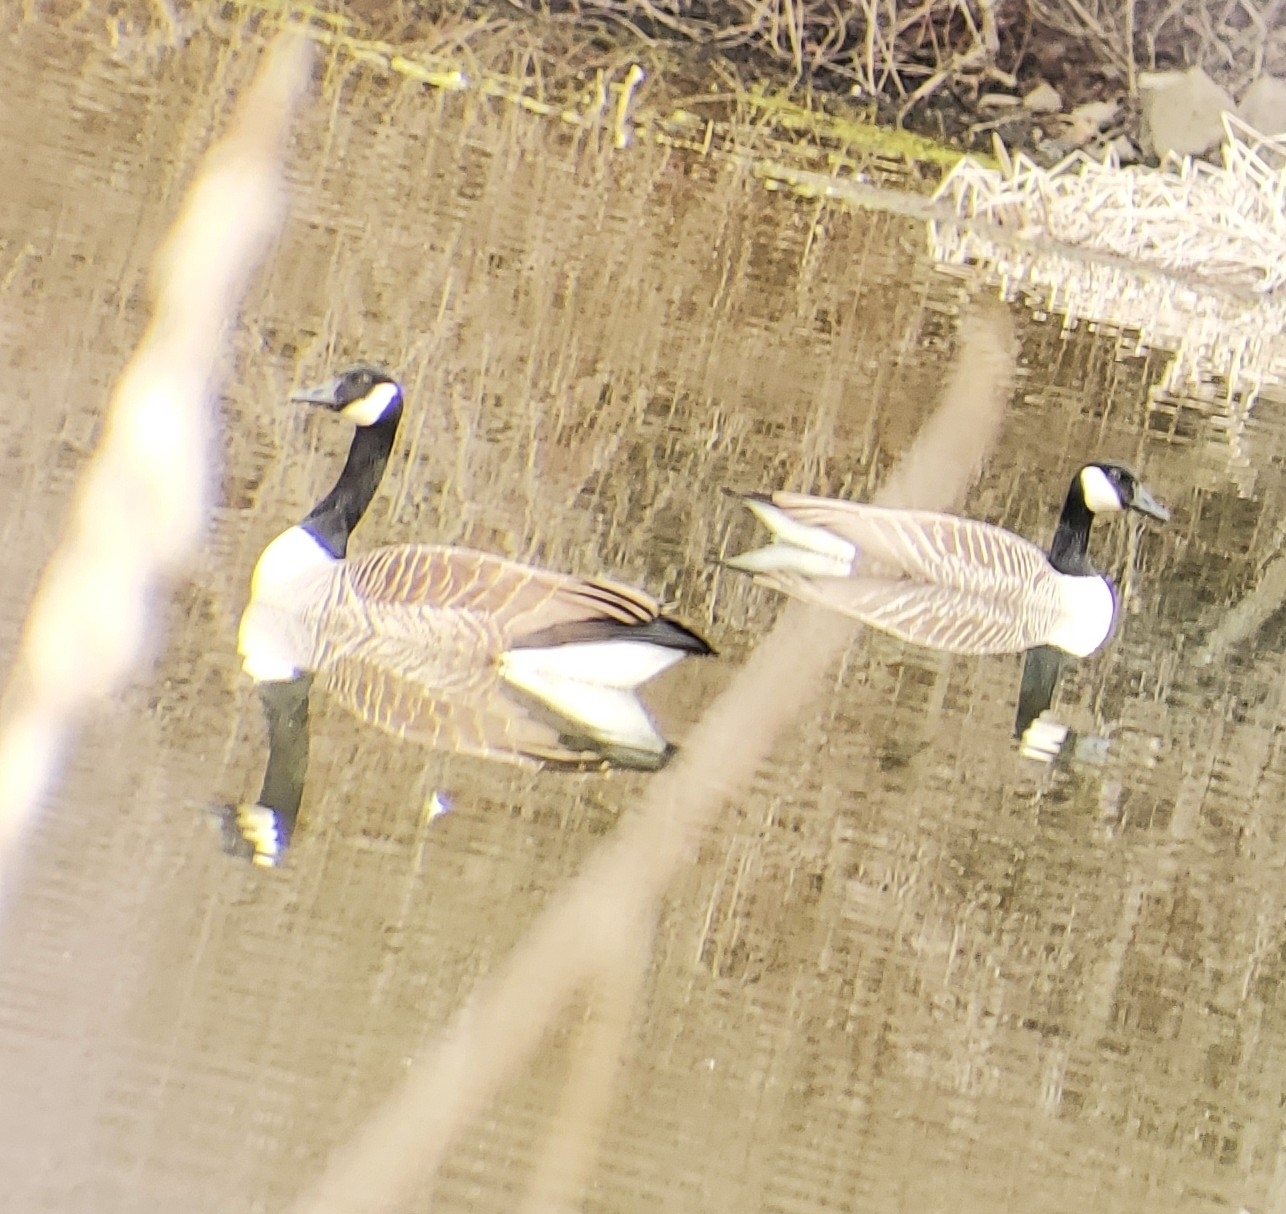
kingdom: Animalia
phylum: Chordata
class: Aves
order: Anseriformes
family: Anatidae
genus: Branta
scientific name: Branta canadensis
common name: Canada goose
